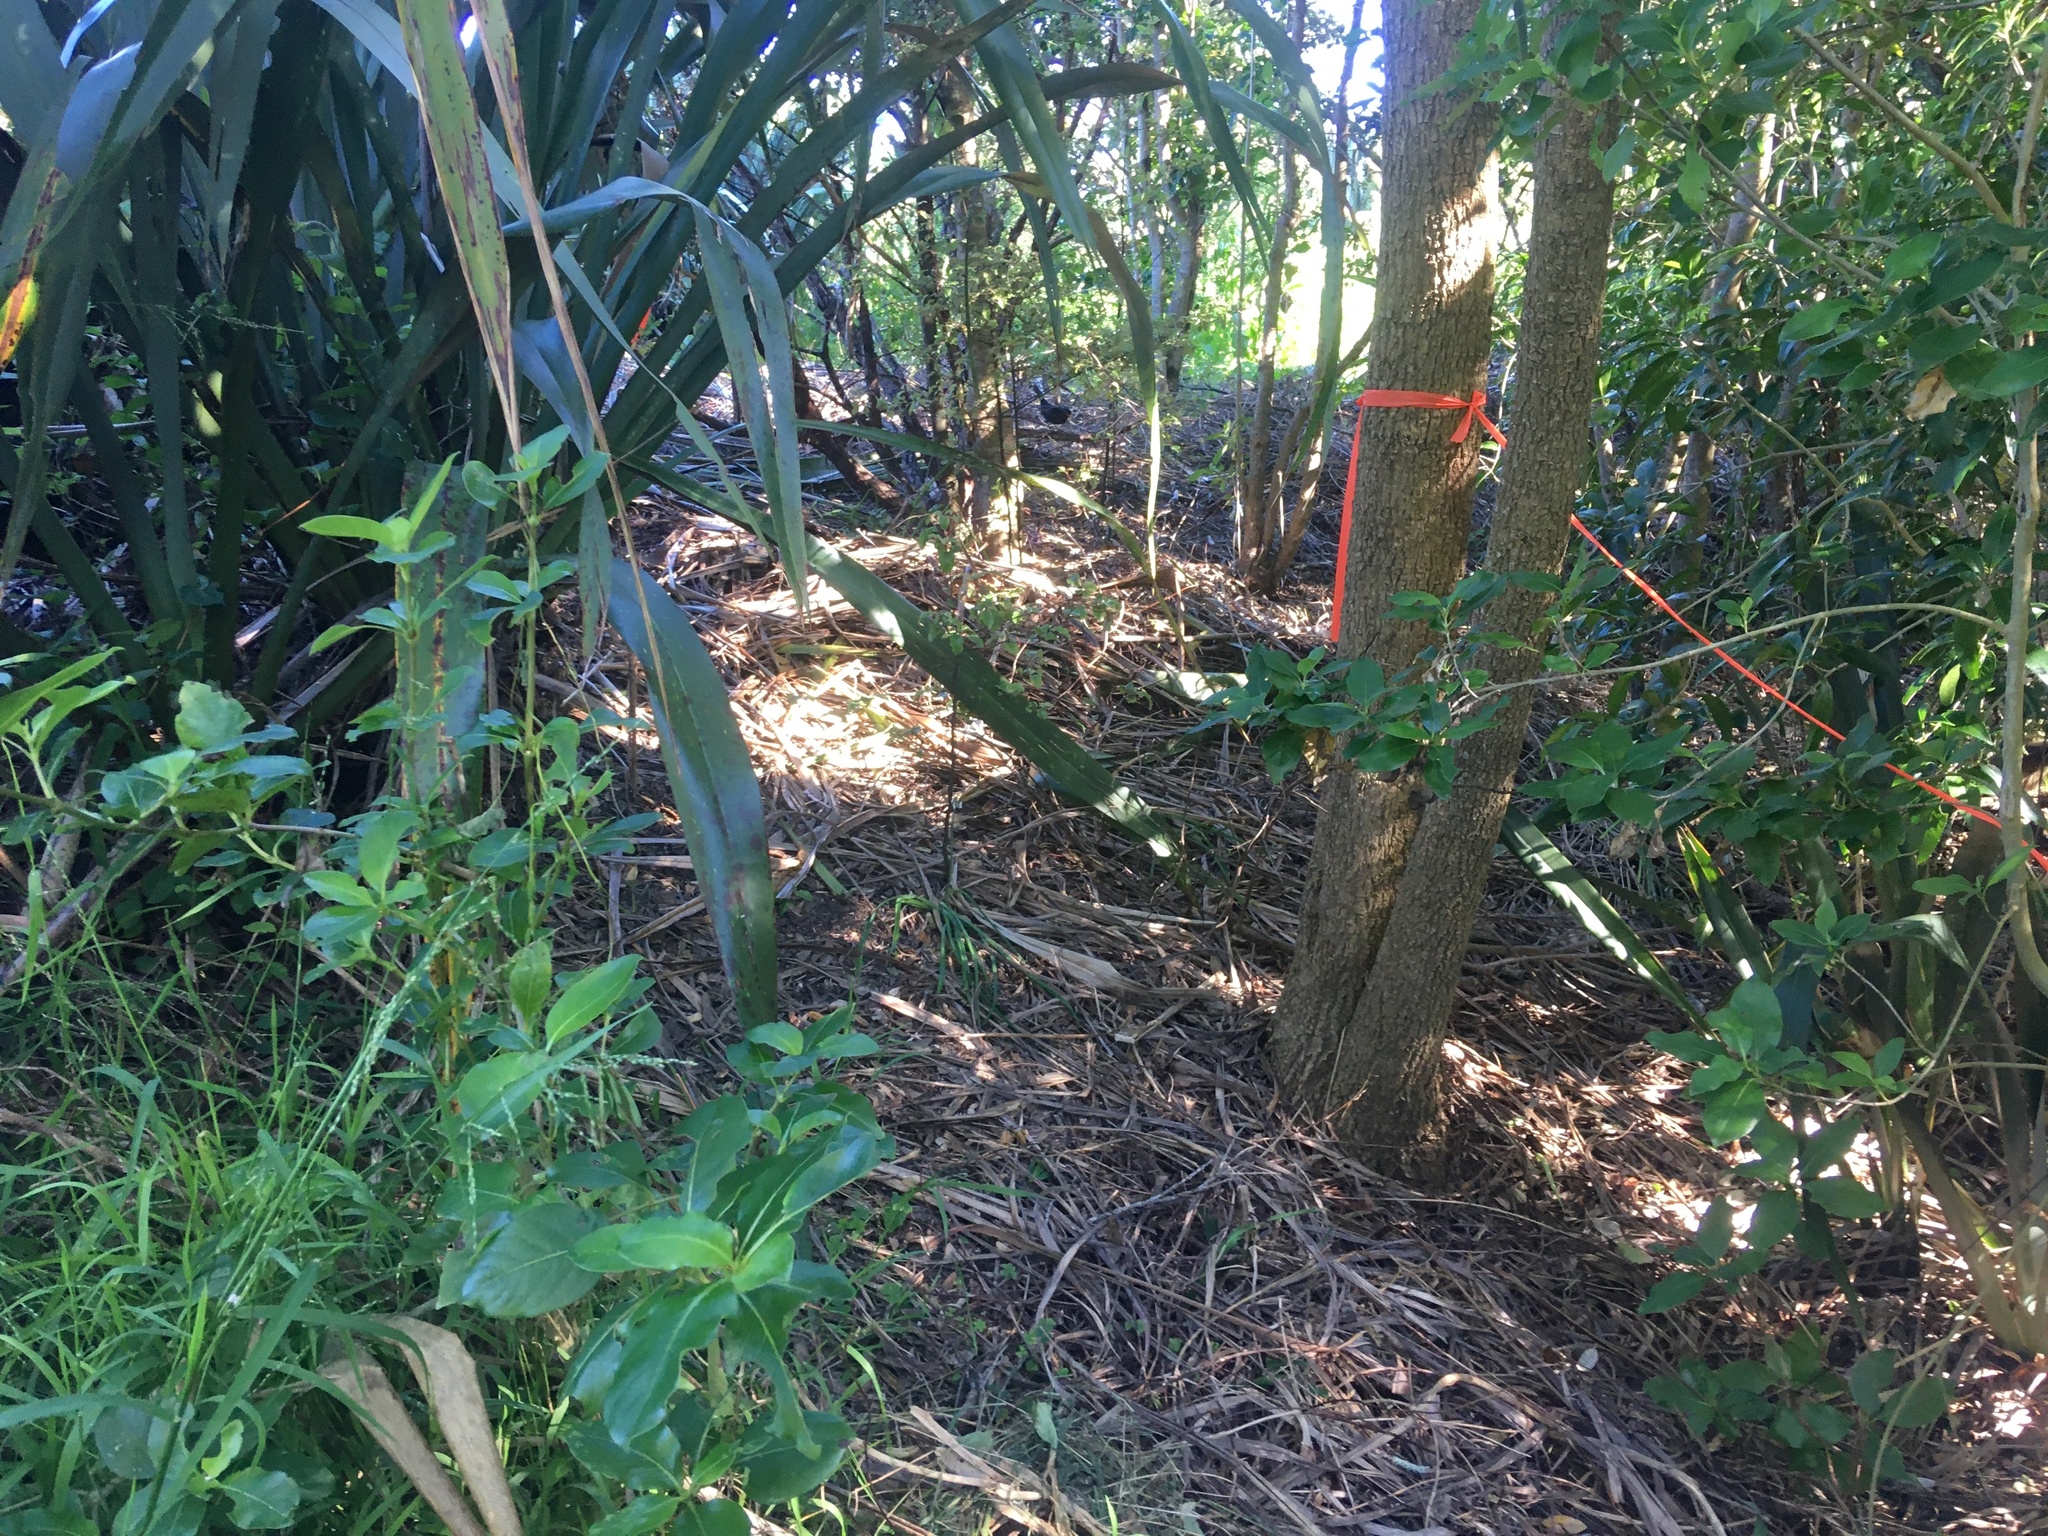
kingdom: Plantae
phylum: Tracheophyta
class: Magnoliopsida
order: Gentianales
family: Rubiaceae
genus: Coprosma
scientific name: Coprosma robusta
